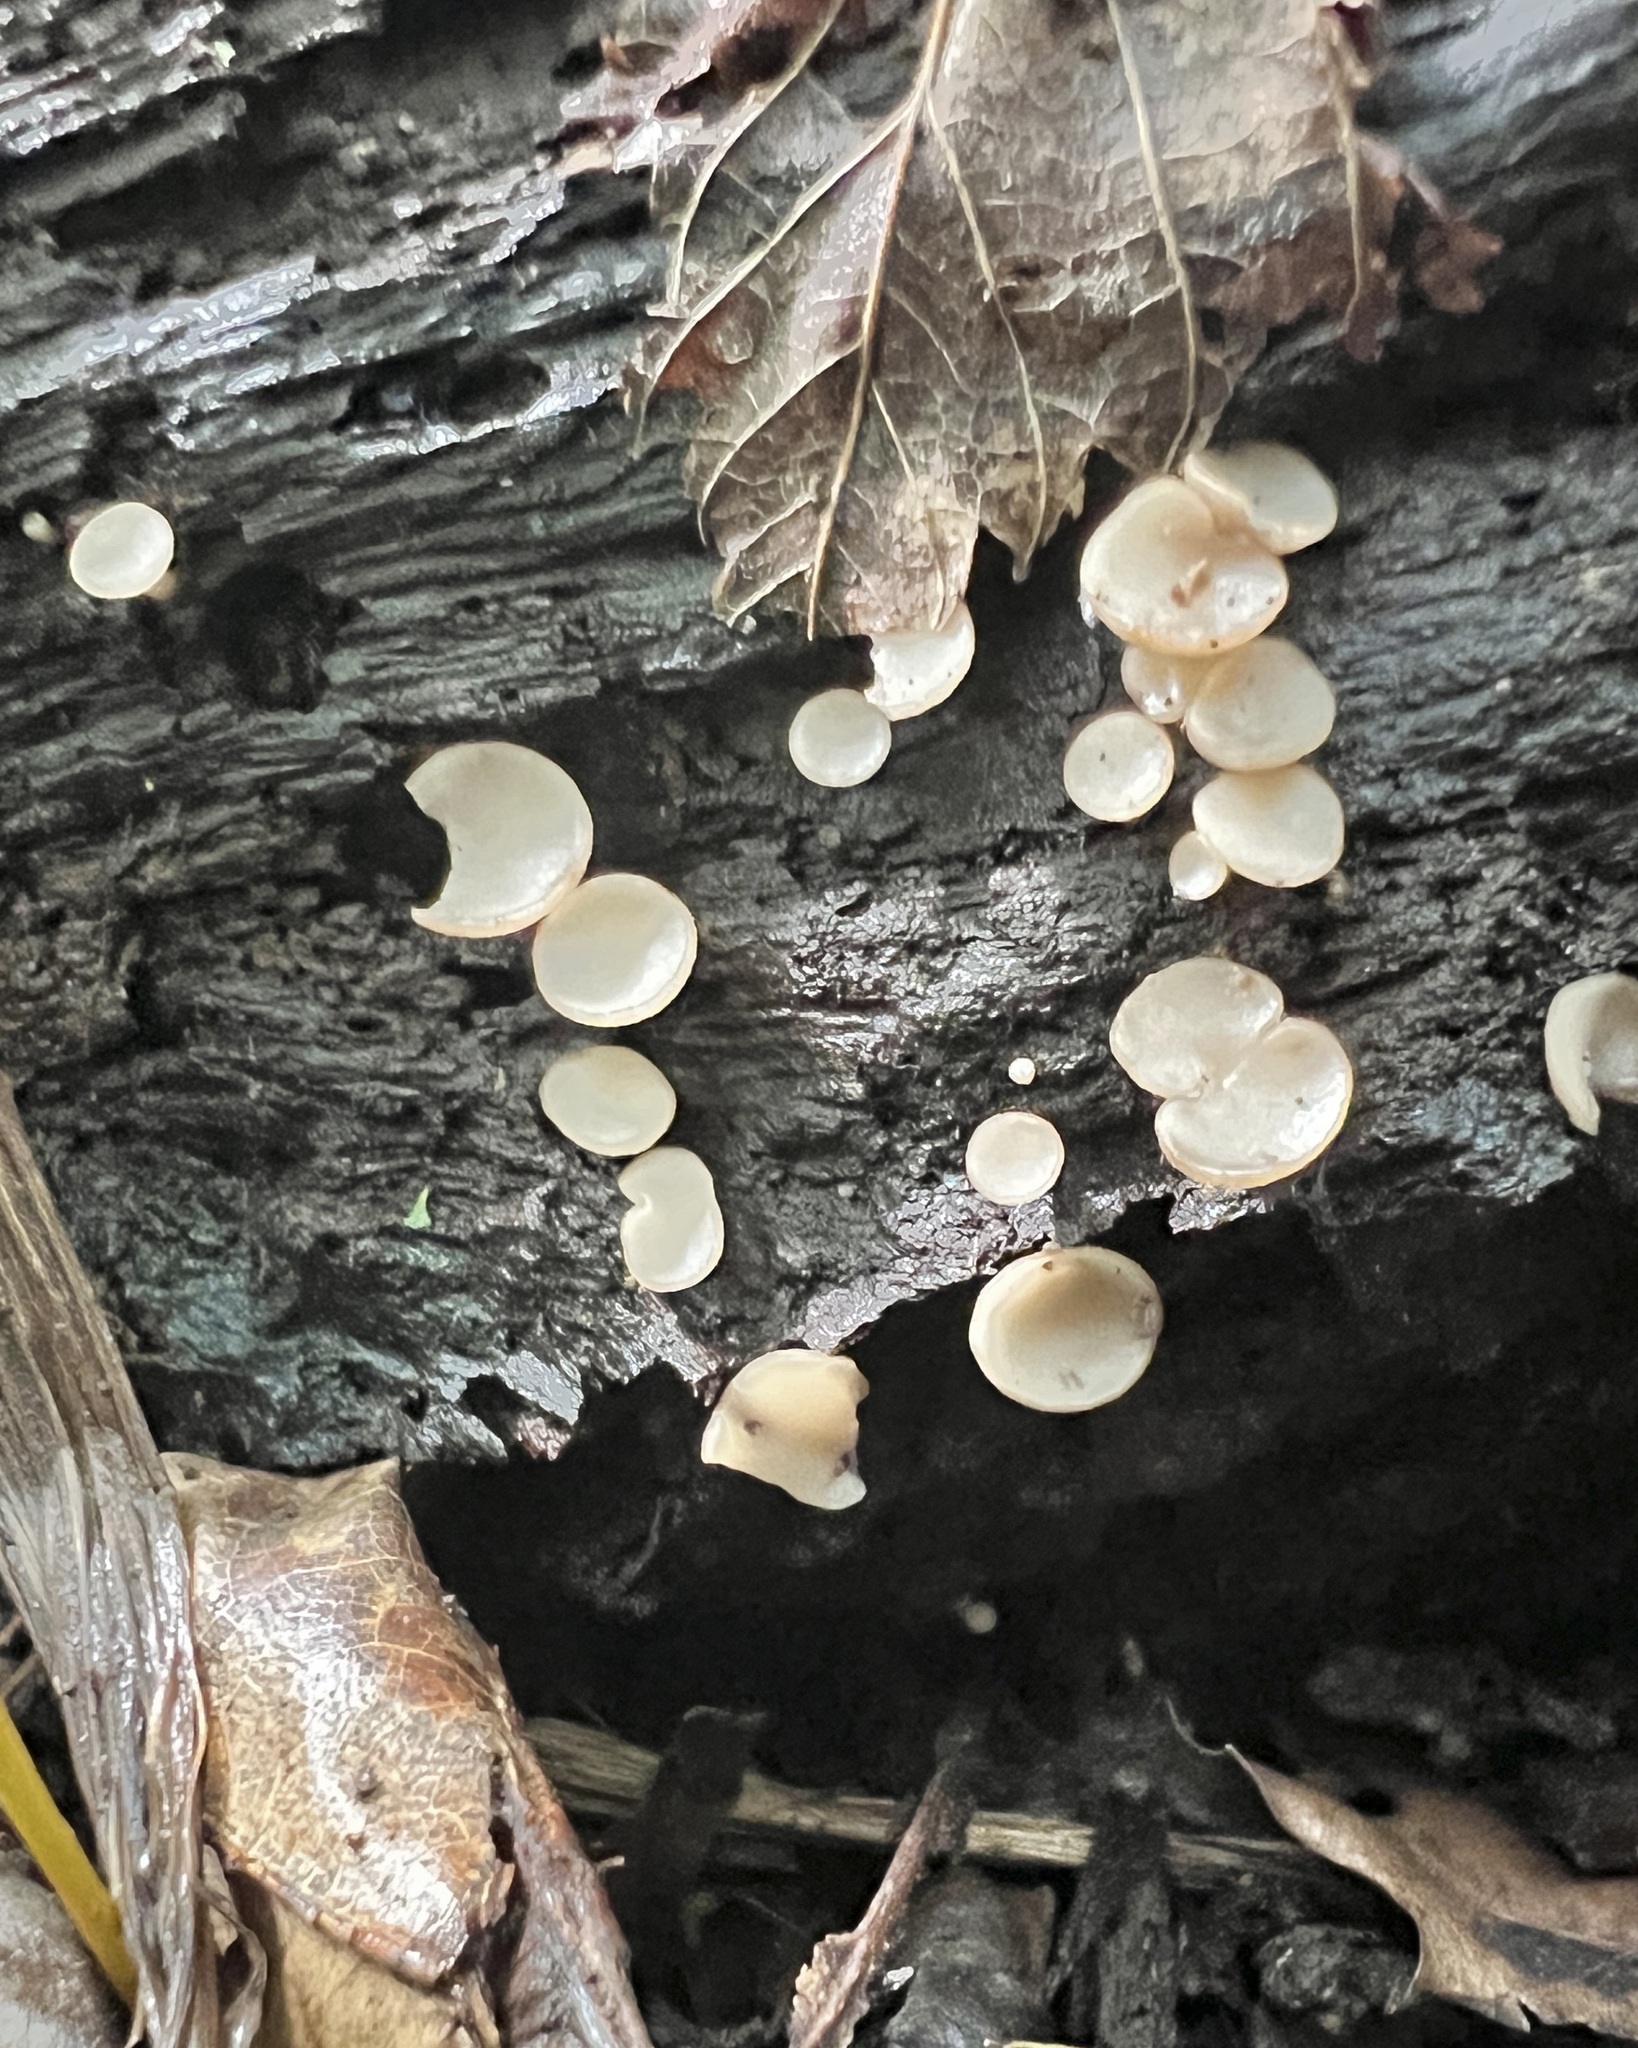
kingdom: Fungi
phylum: Ascomycota
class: Leotiomycetes
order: Helotiales
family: Helotiaceae
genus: Tatraea
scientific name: Tatraea macrospora
